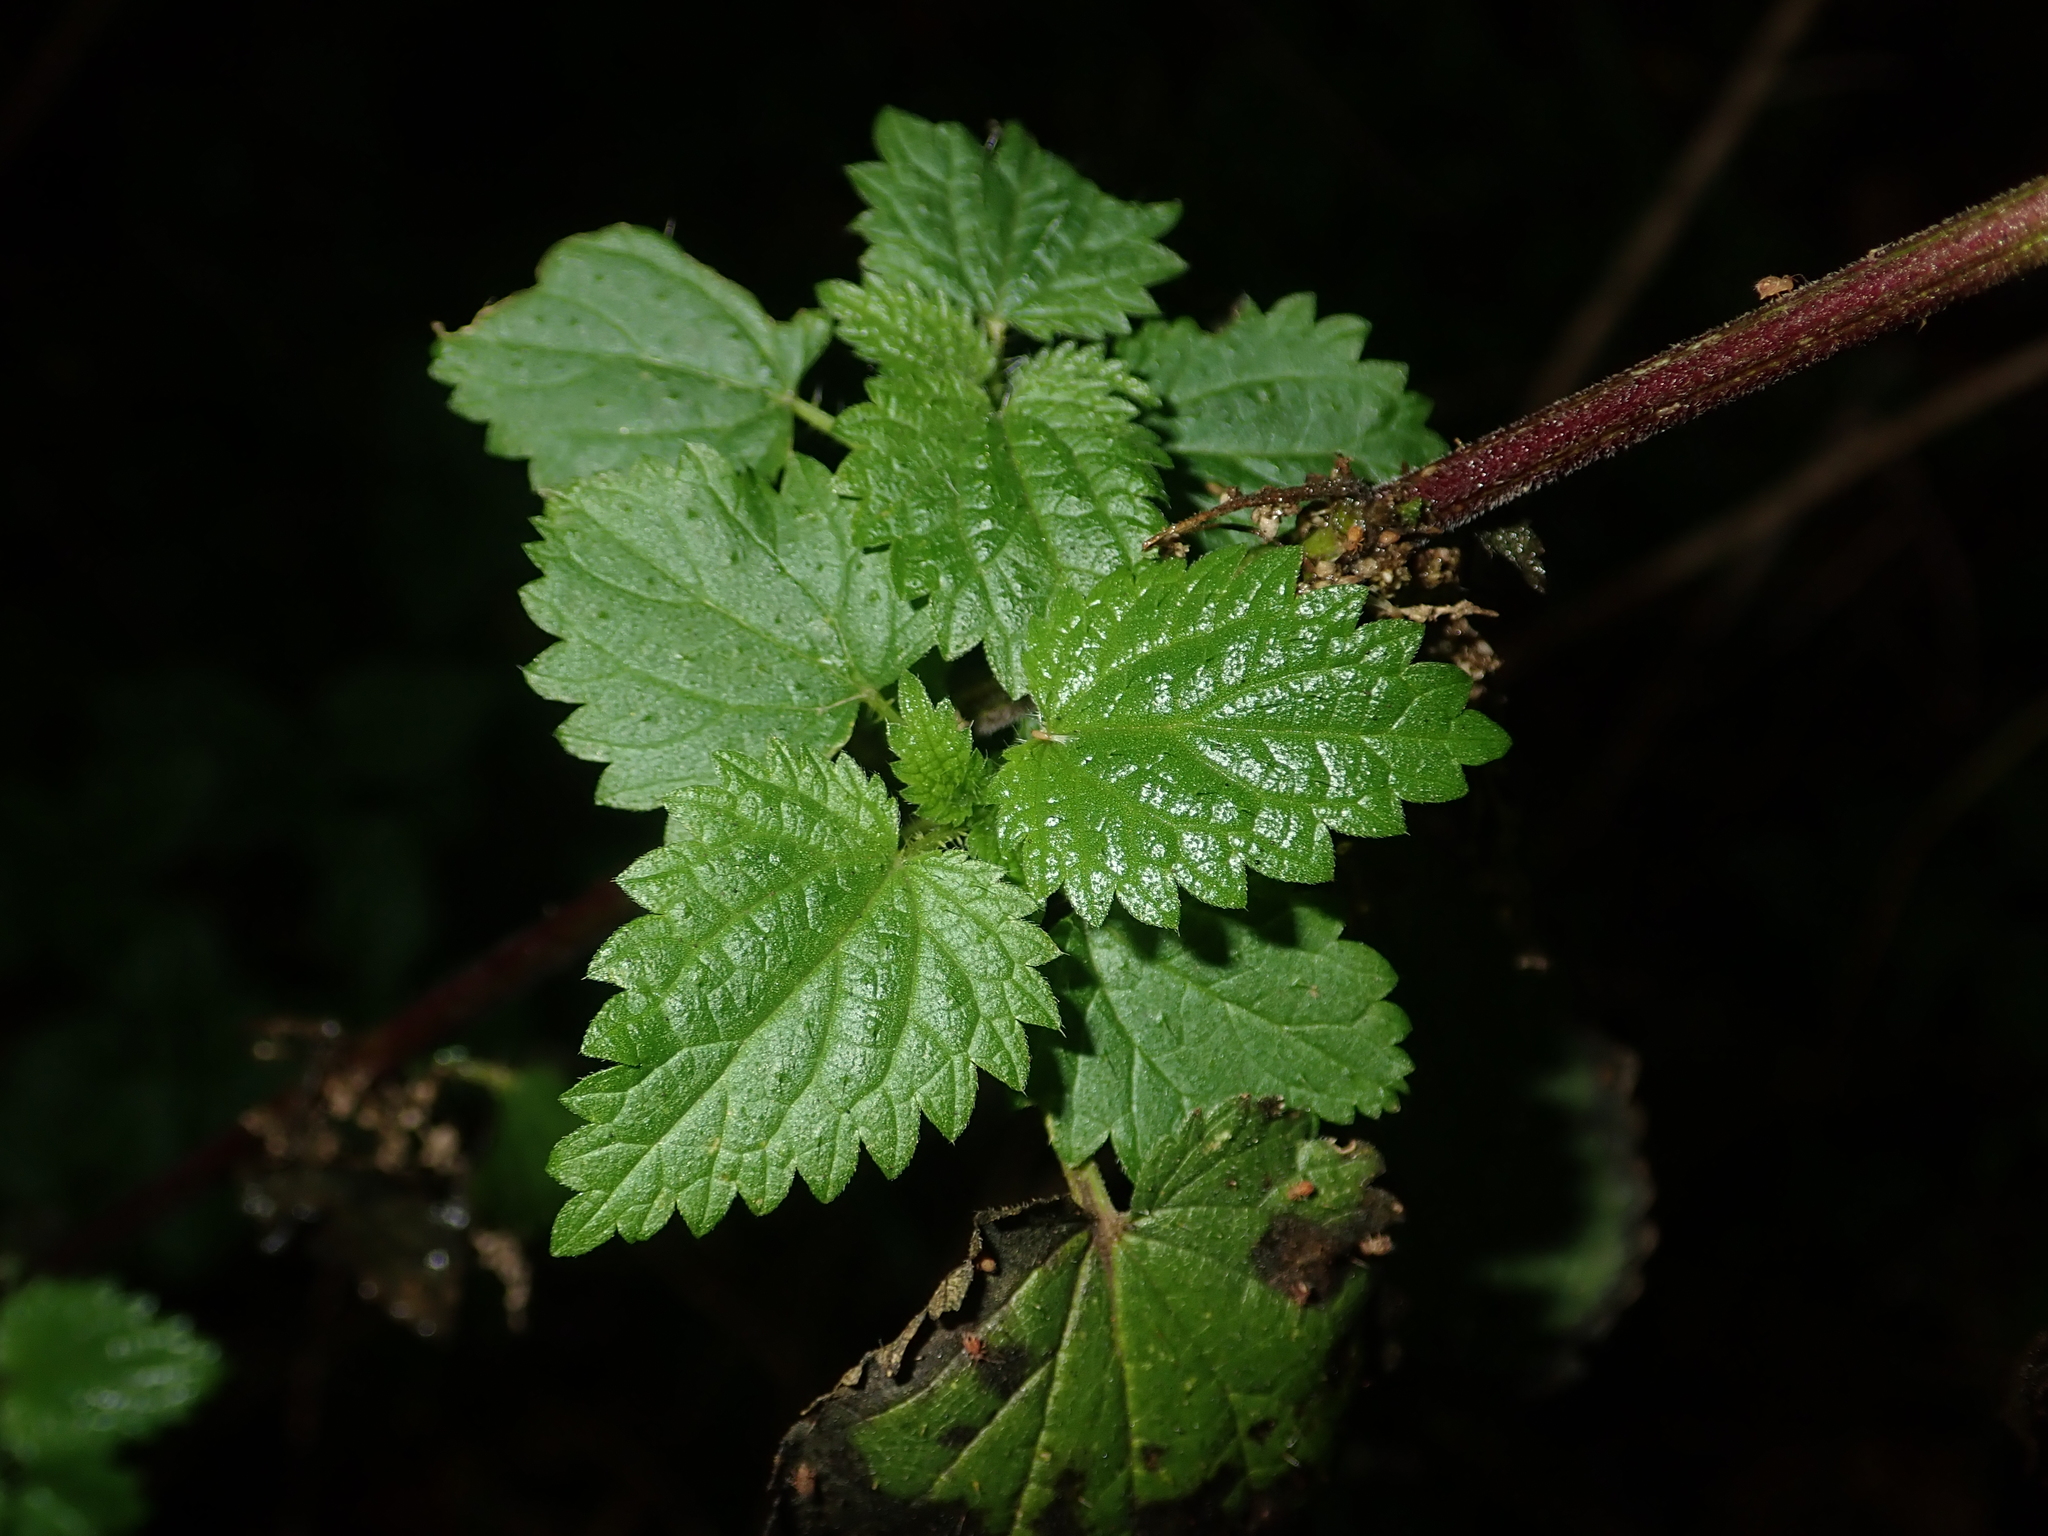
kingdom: Plantae
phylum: Tracheophyta
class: Magnoliopsida
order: Rosales
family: Urticaceae
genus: Urtica
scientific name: Urtica dioica
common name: Common nettle
